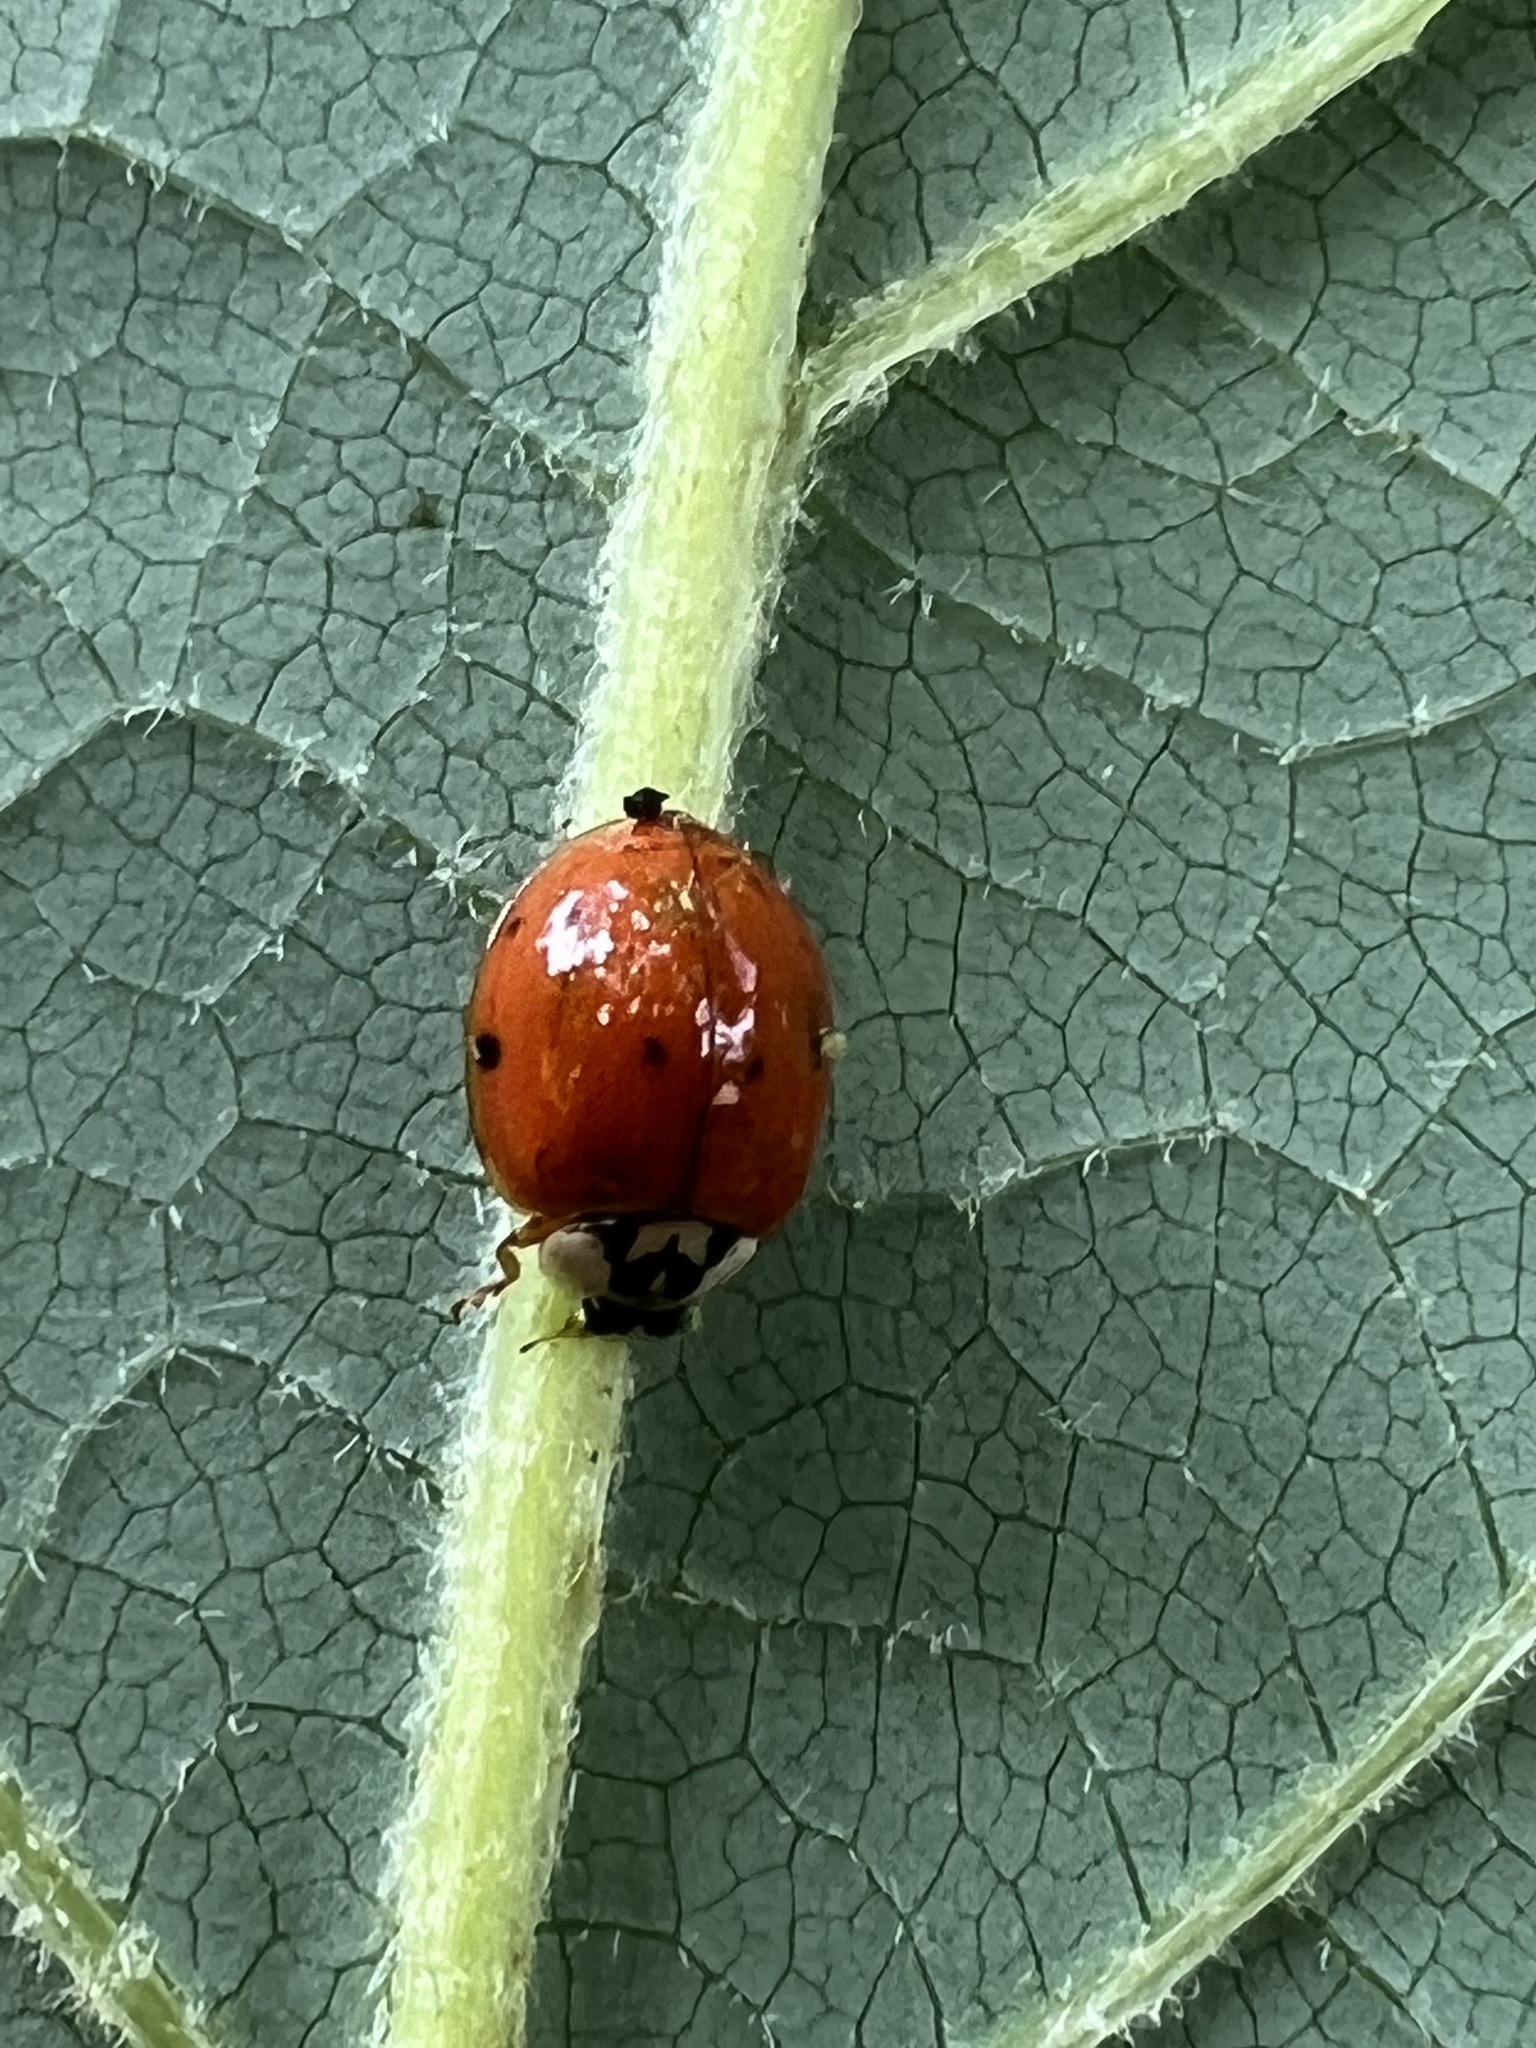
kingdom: Animalia
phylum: Arthropoda
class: Insecta
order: Coleoptera
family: Coccinellidae
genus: Harmonia
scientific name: Harmonia axyridis
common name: Harlequin ladybird
